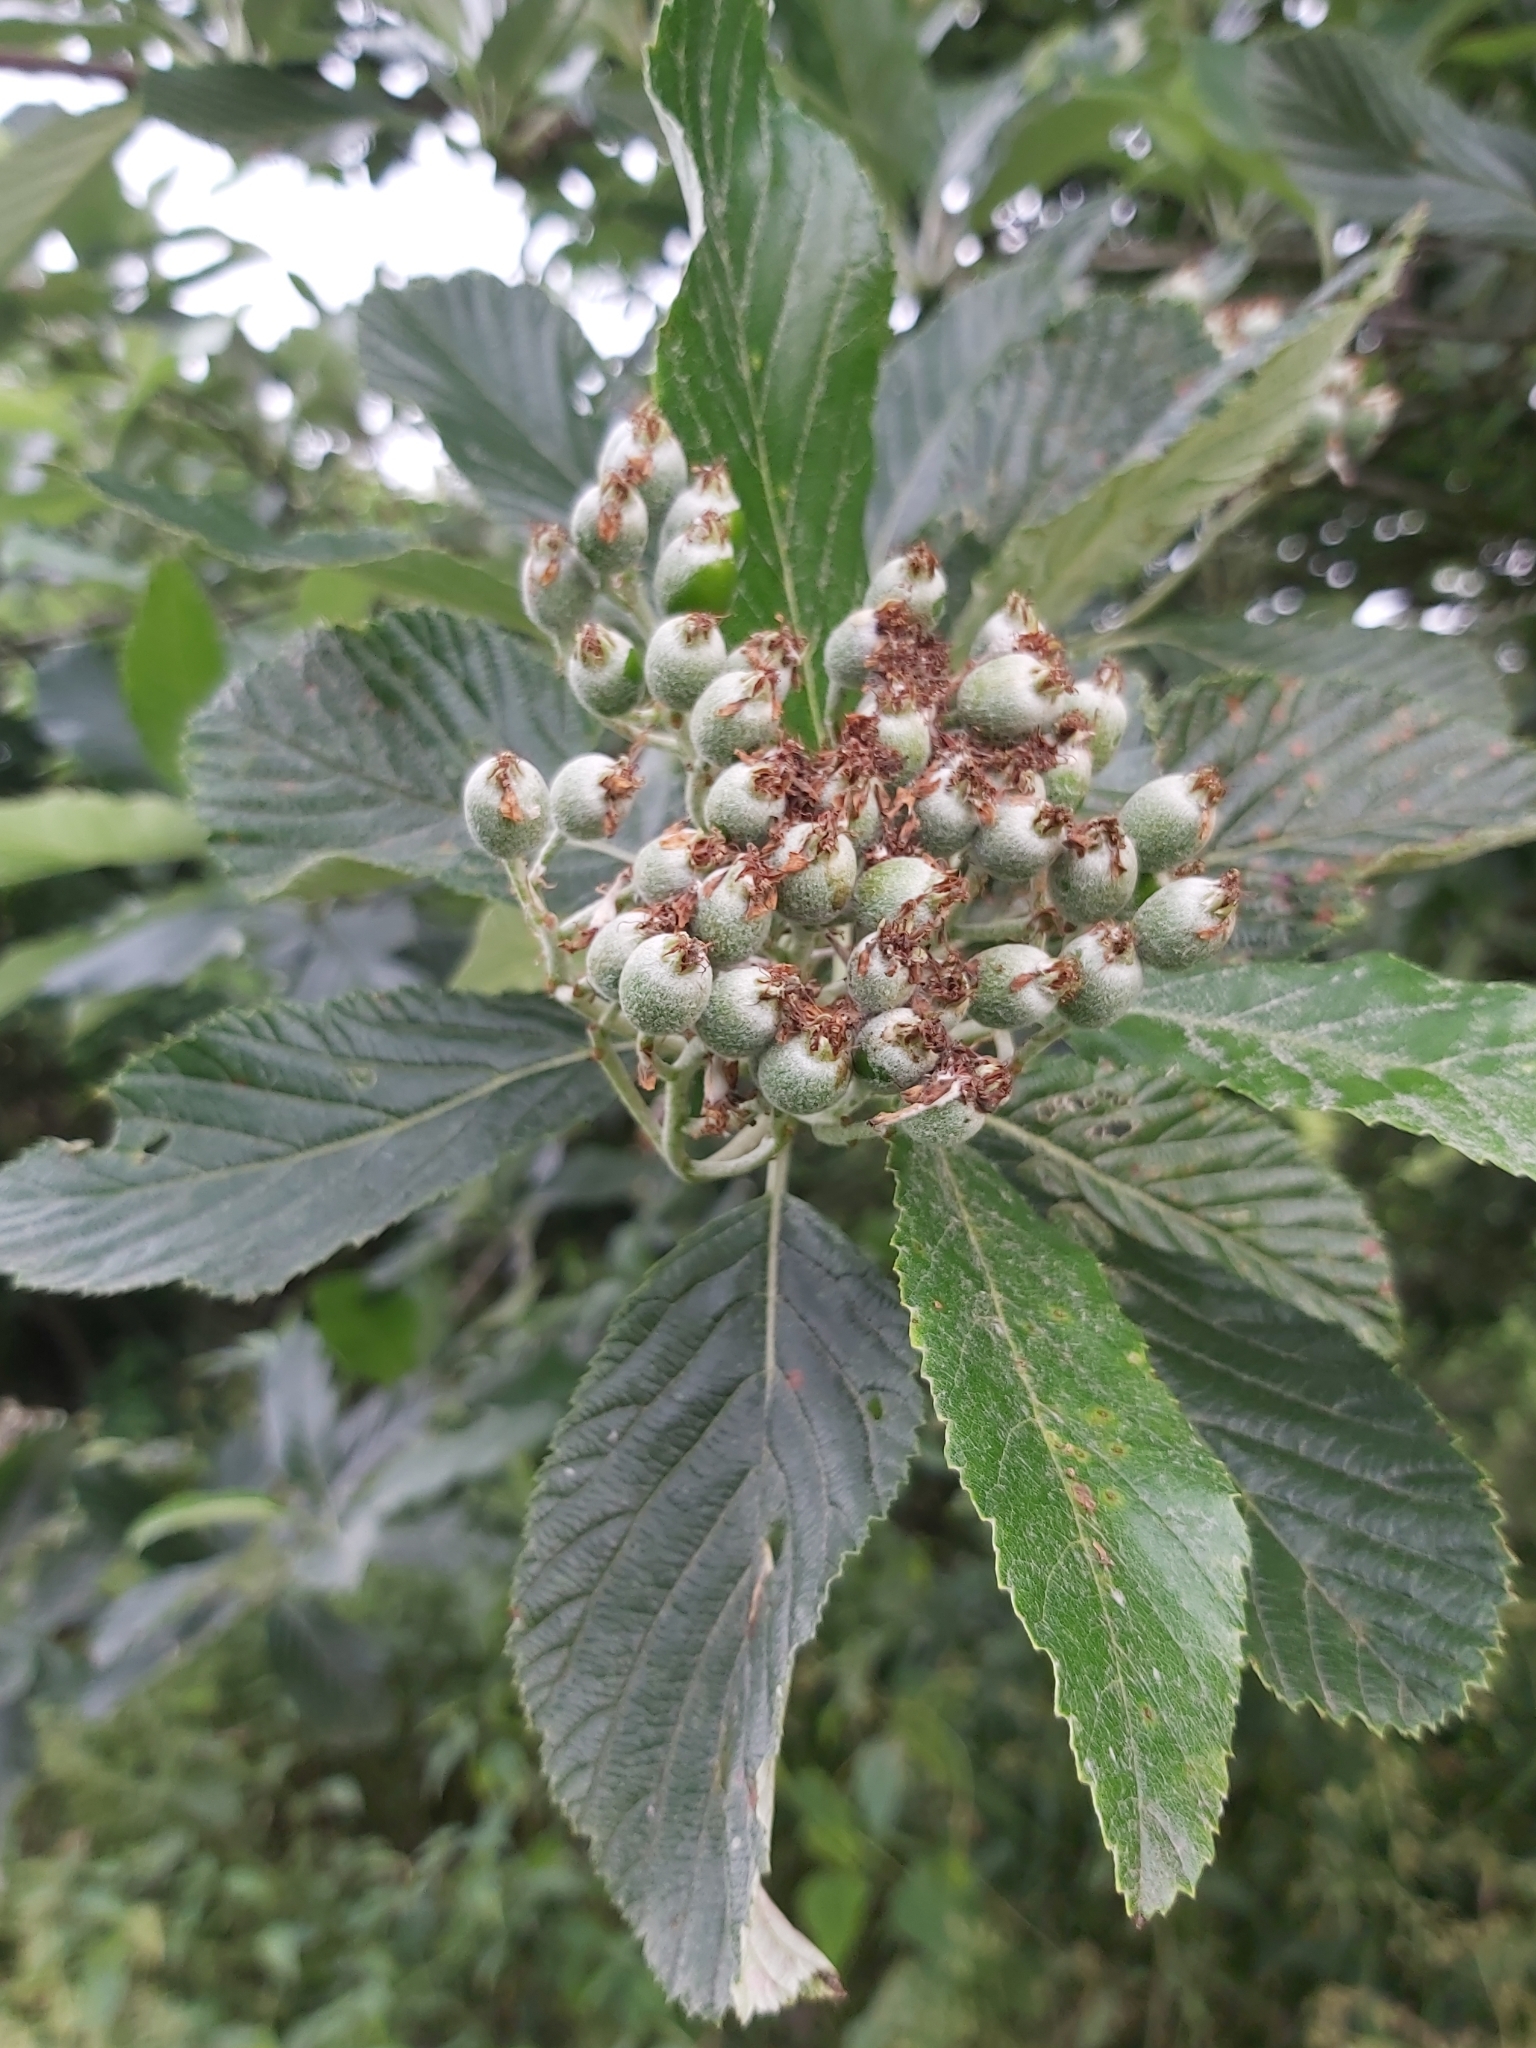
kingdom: Plantae
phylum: Tracheophyta
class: Magnoliopsida
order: Rosales
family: Rosaceae
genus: Aria
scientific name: Aria edulis
